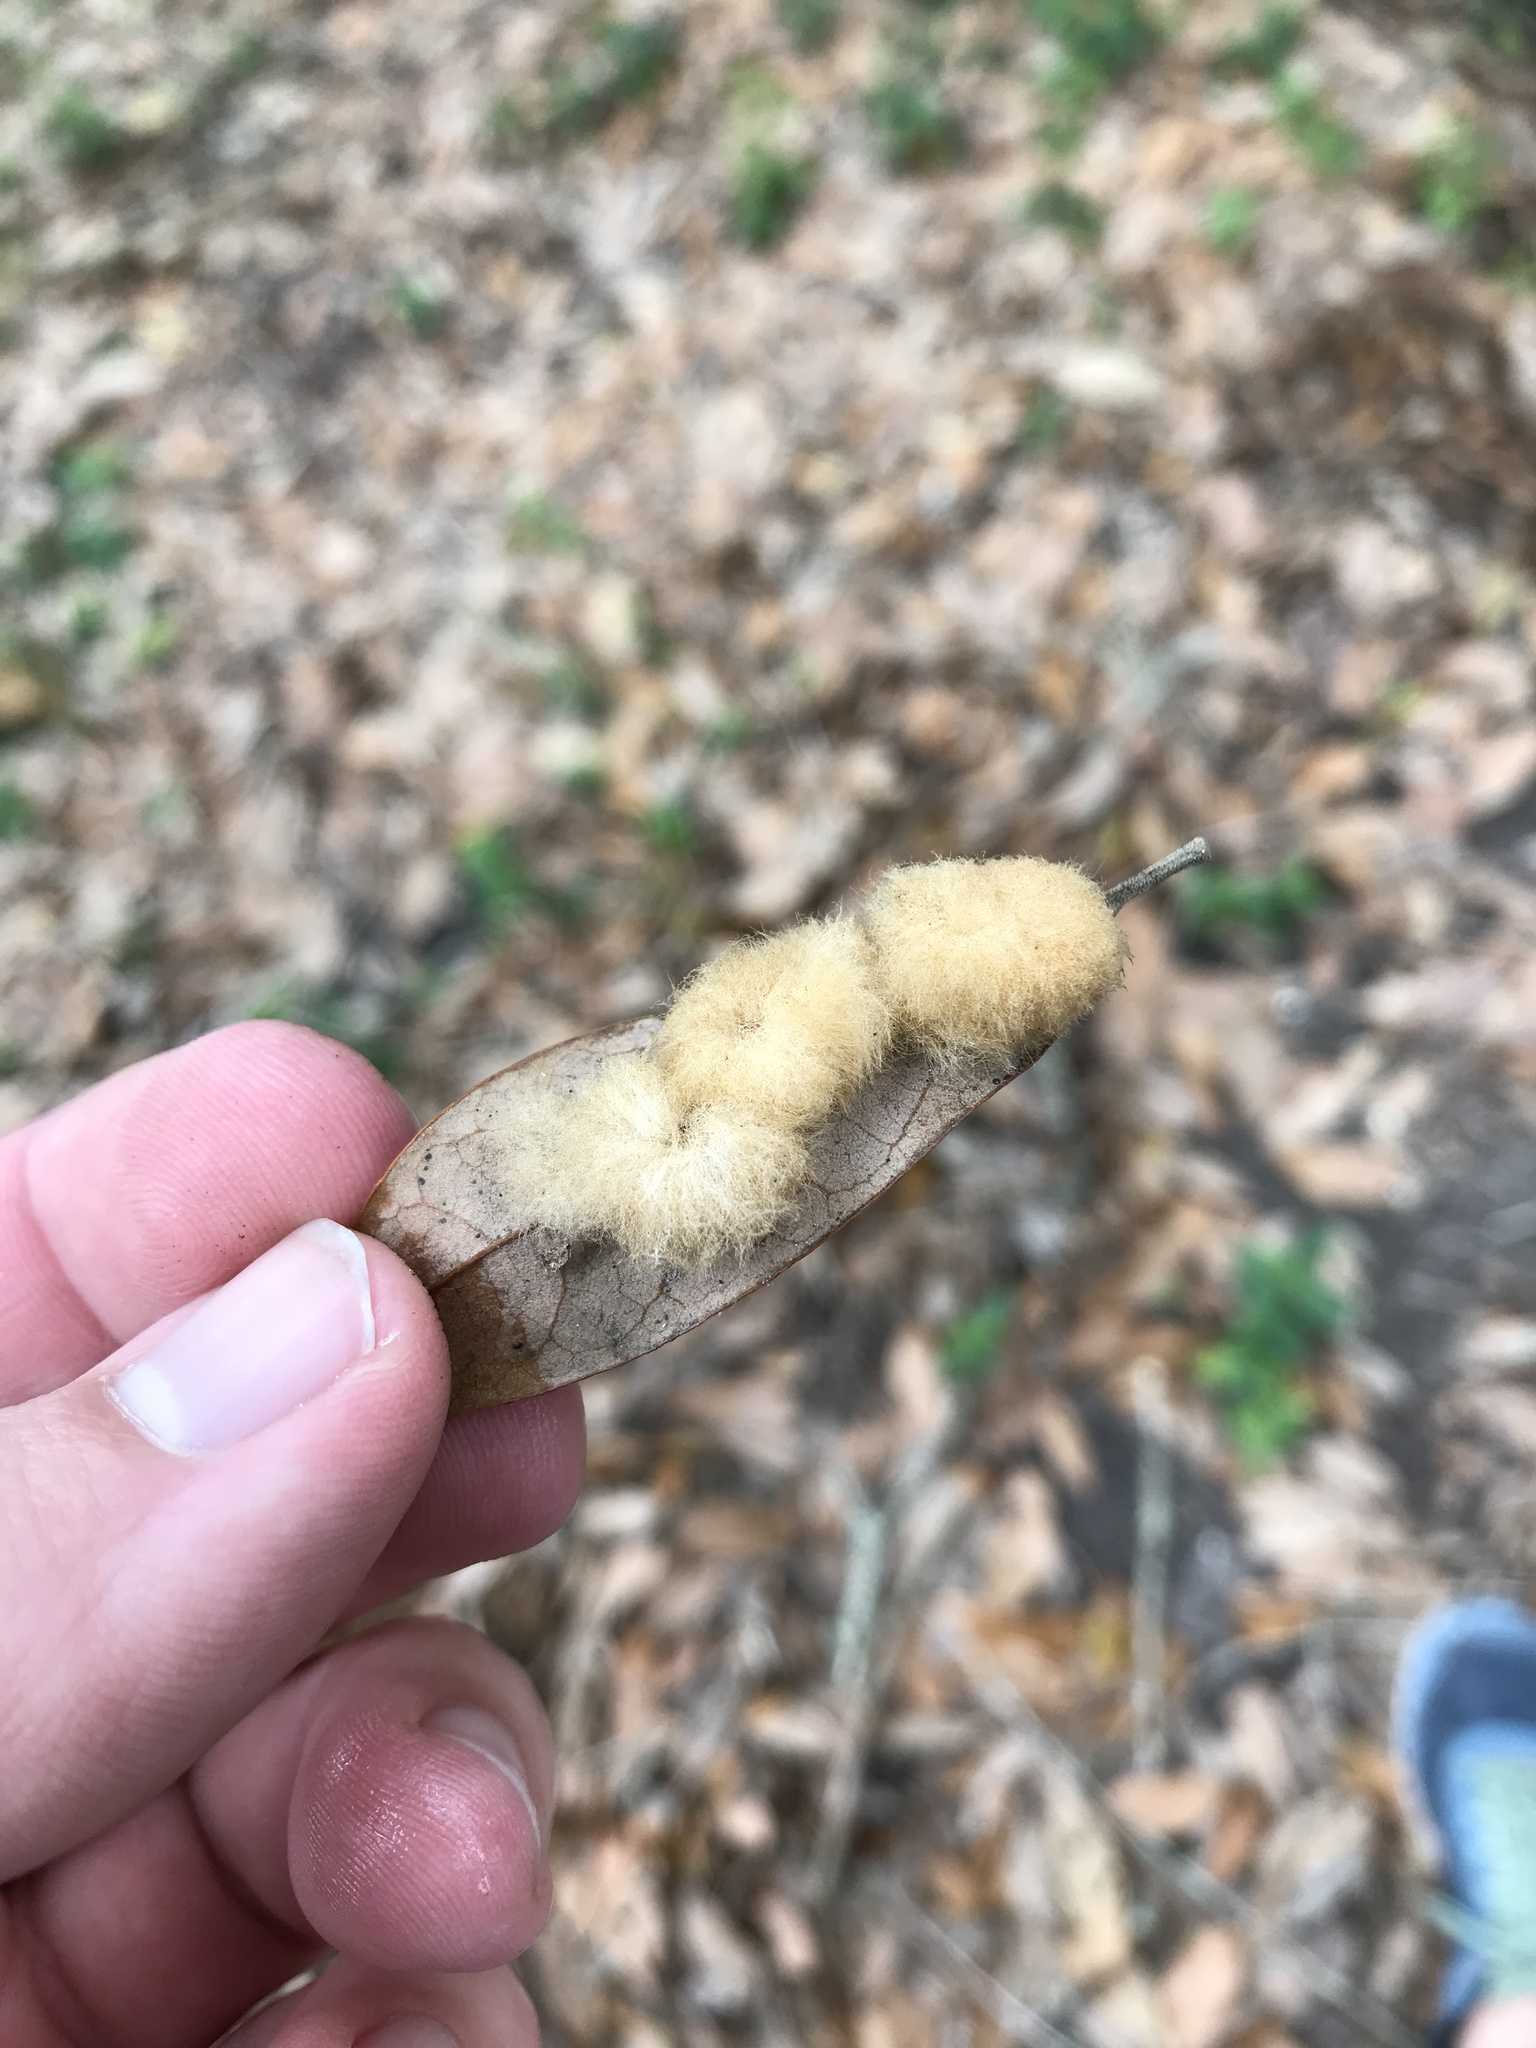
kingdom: Animalia
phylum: Arthropoda
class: Insecta
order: Hymenoptera
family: Cynipidae
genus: Andricus
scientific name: Andricus Druon quercuslanigerum
